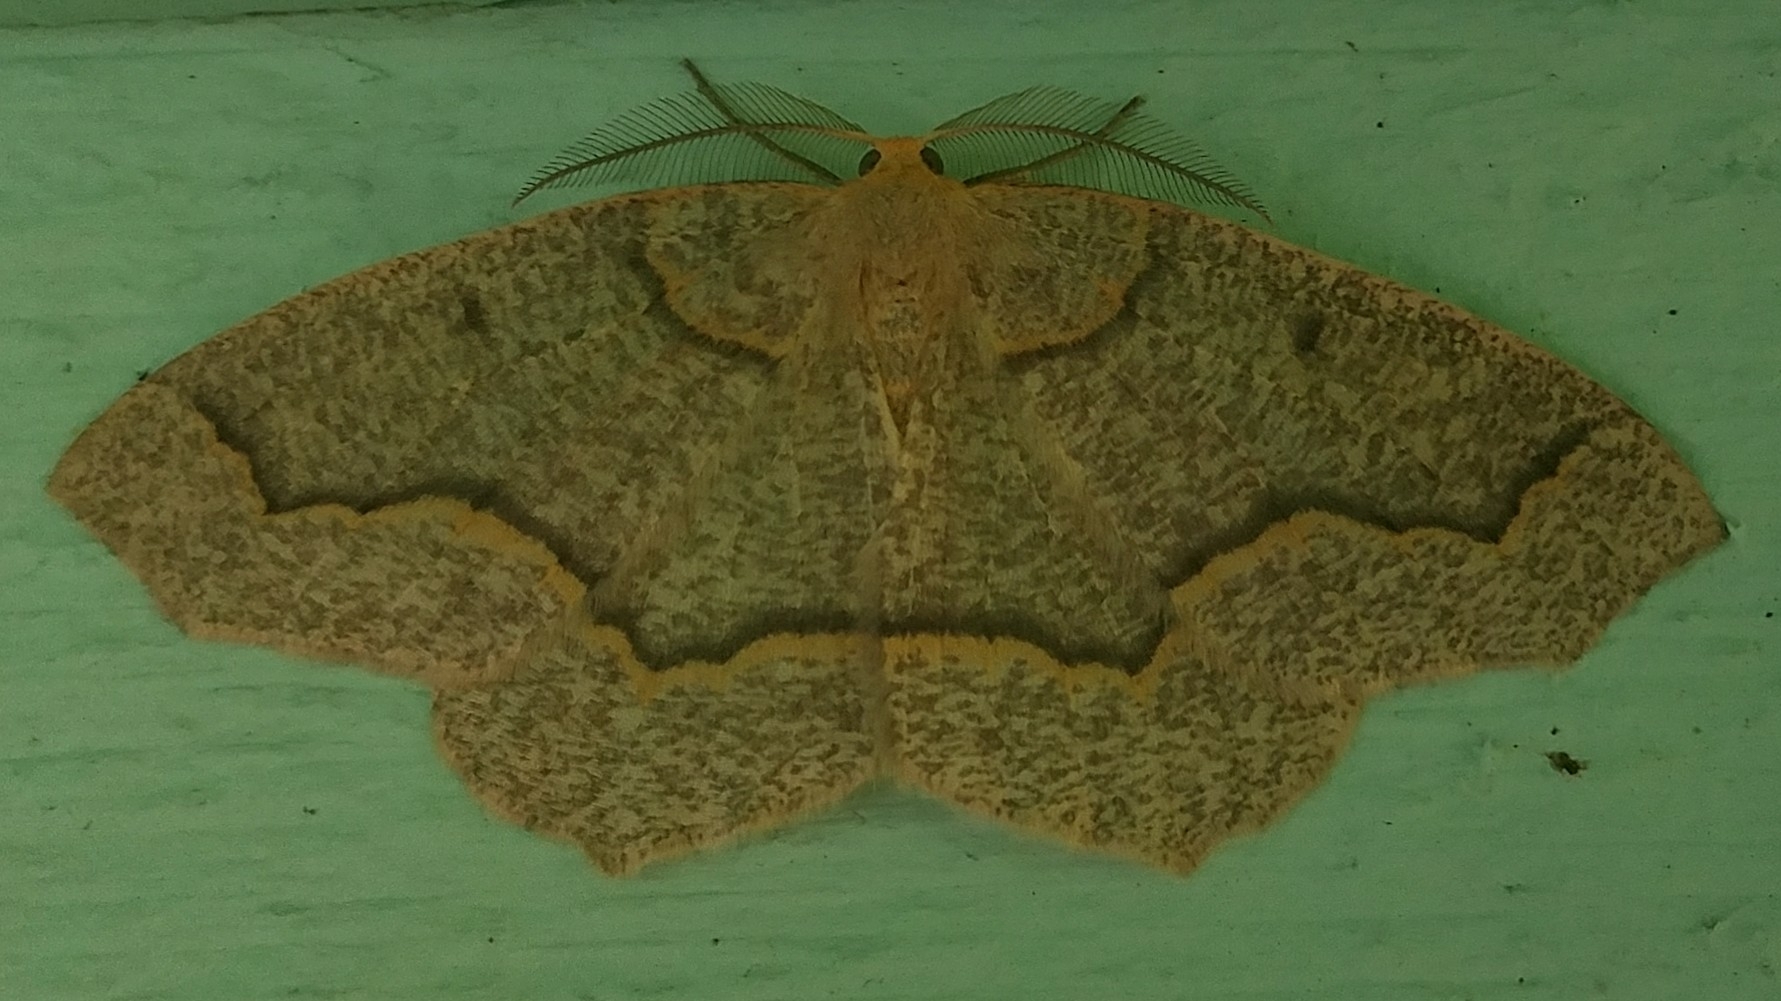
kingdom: Animalia
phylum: Arthropoda
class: Insecta
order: Lepidoptera
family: Geometridae
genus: Lambdina
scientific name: Lambdina fiscellaria
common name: Hemlock looper
